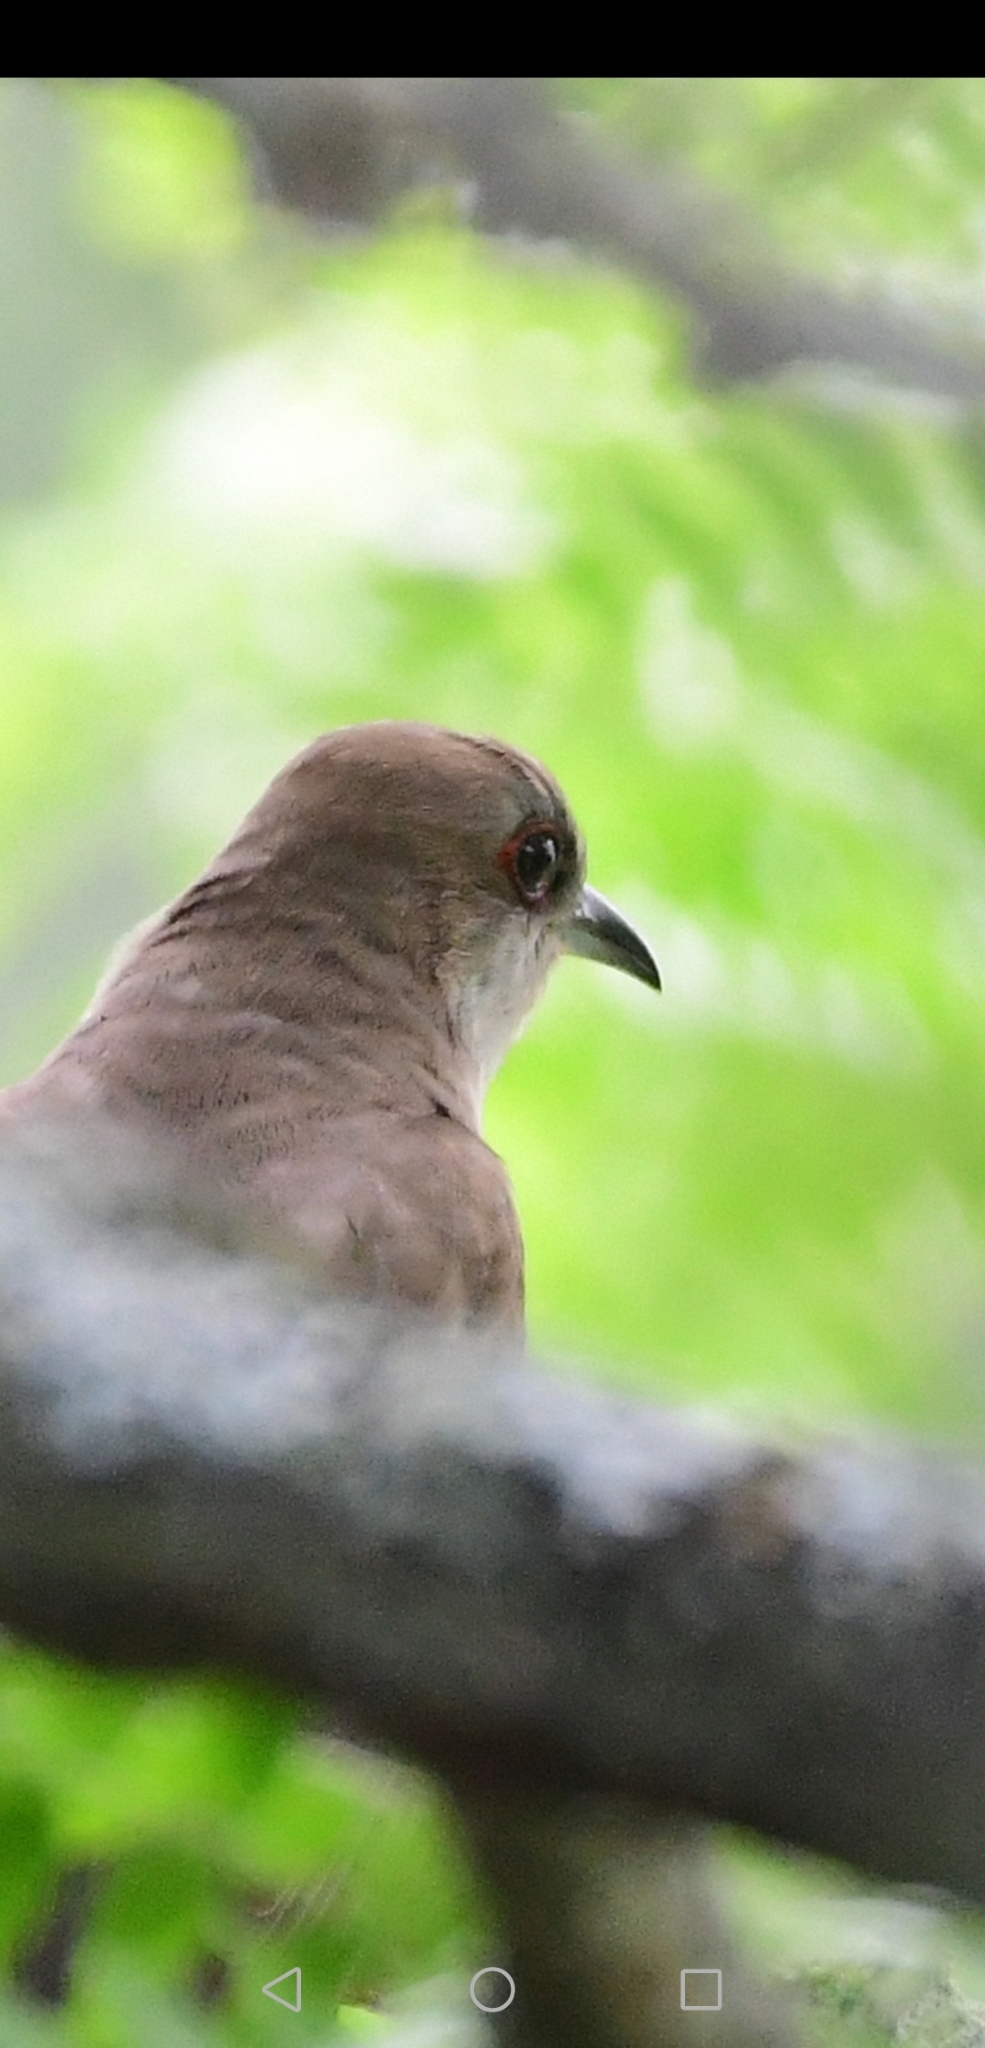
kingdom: Animalia
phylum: Chordata
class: Aves
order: Cuculiformes
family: Cuculidae
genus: Coccyzus
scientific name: Coccyzus erythropthalmus
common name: Black-billed cuckoo
